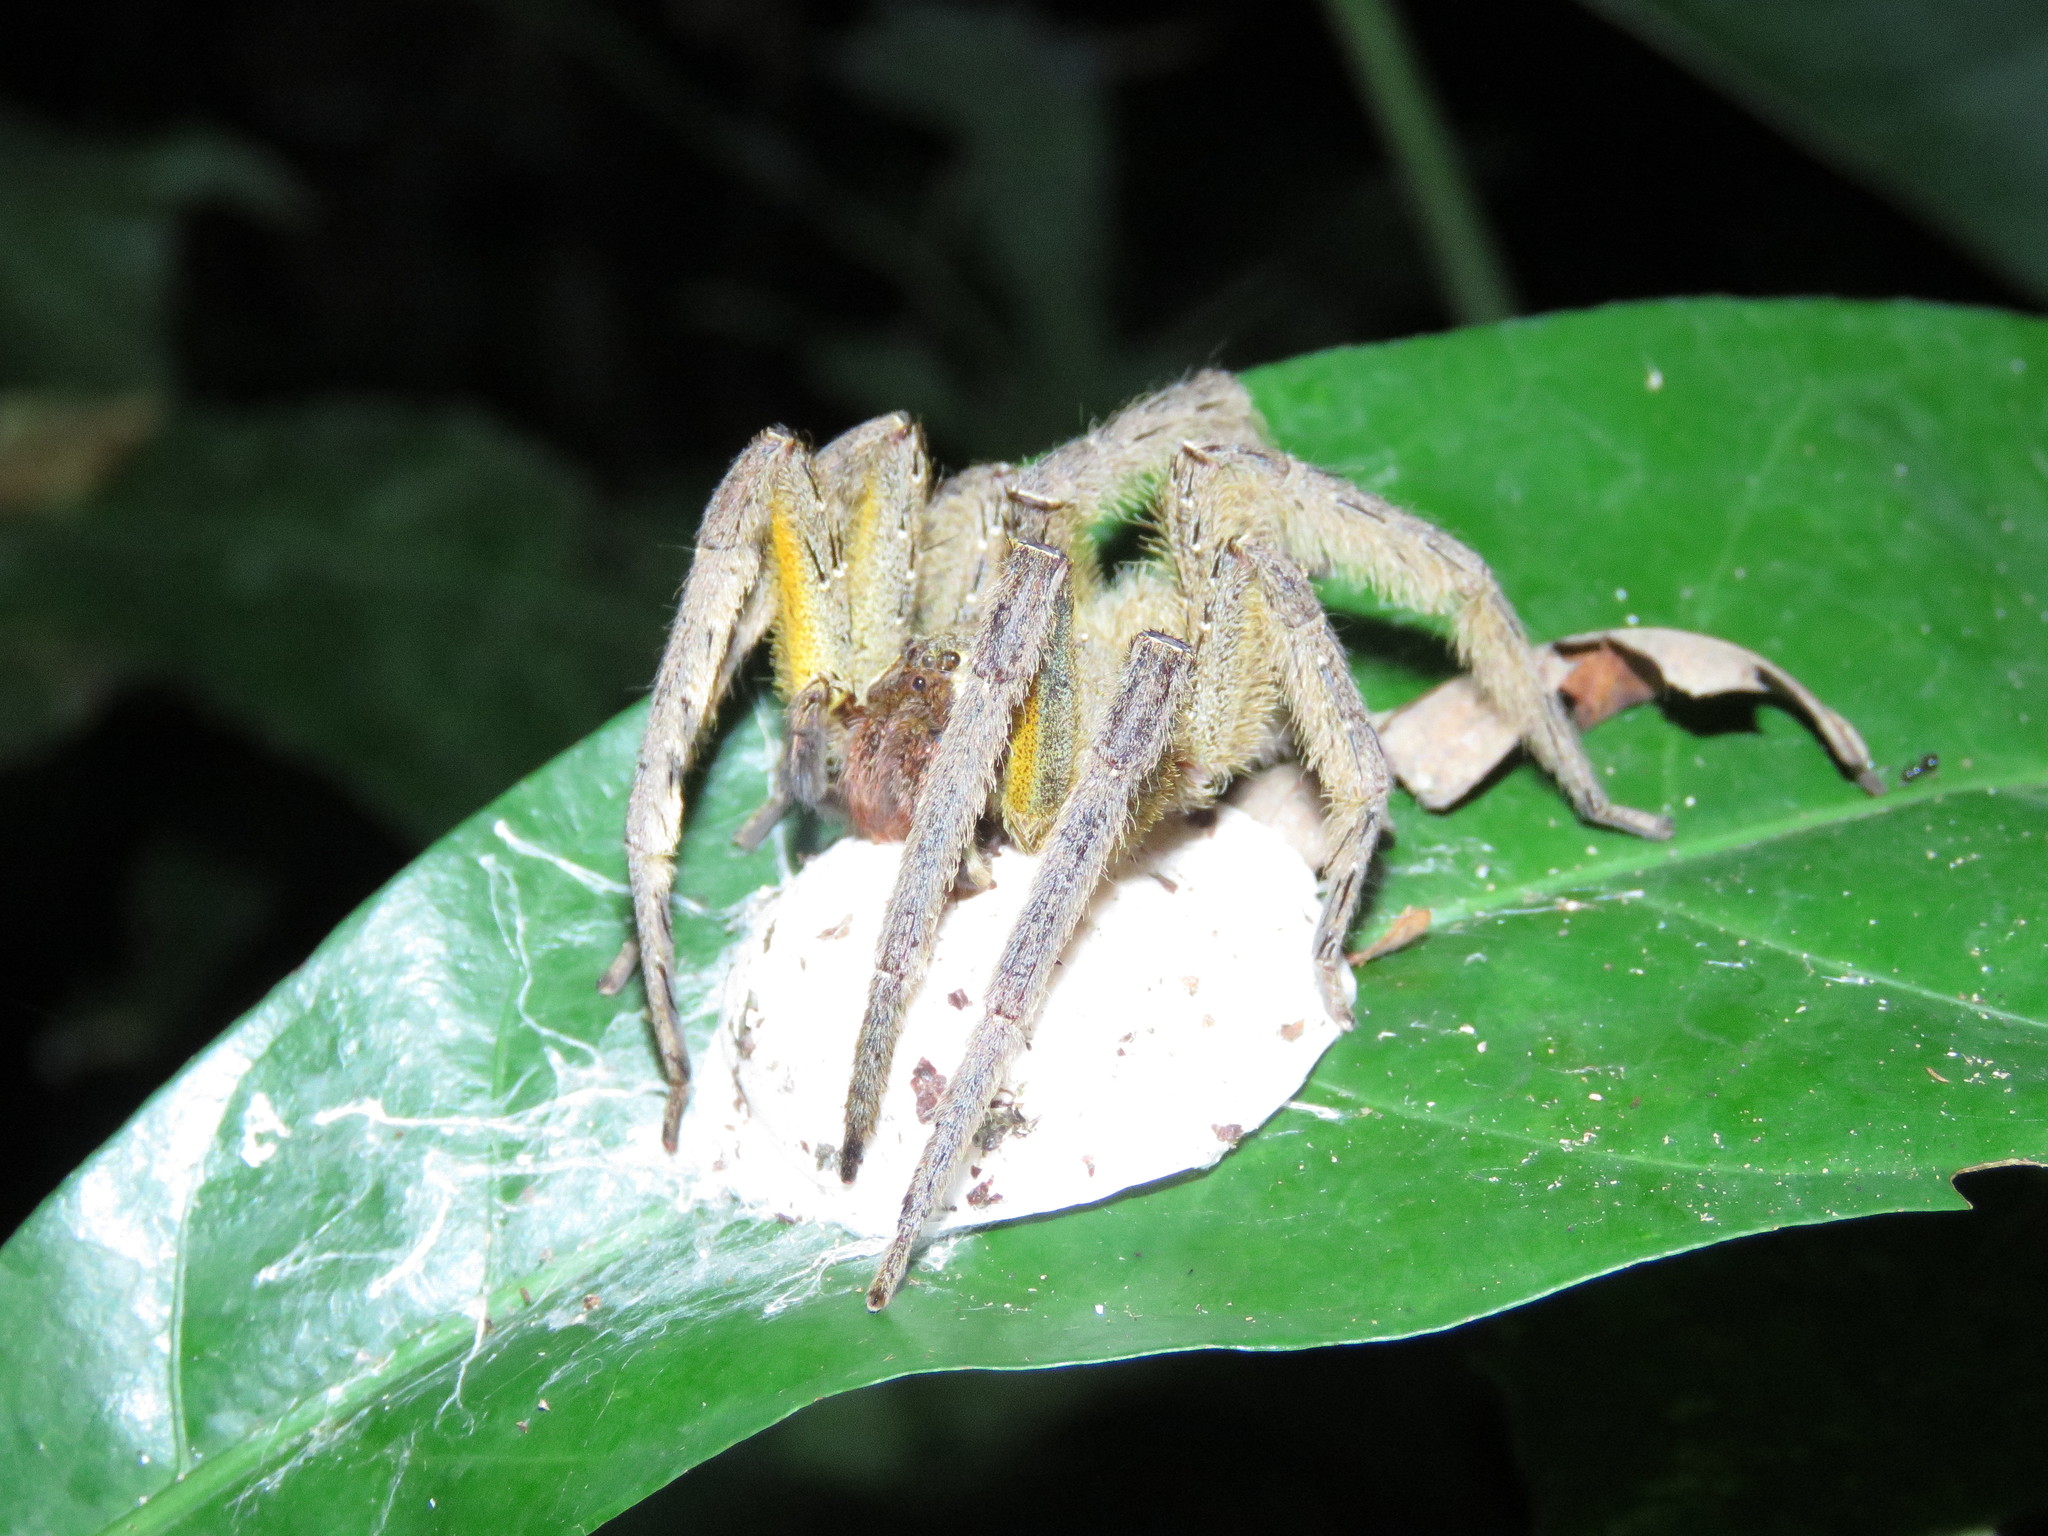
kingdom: Animalia
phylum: Arthropoda
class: Arachnida
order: Araneae
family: Ctenidae
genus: Phoneutria
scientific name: Phoneutria boliviensis
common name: Wandering spiders
